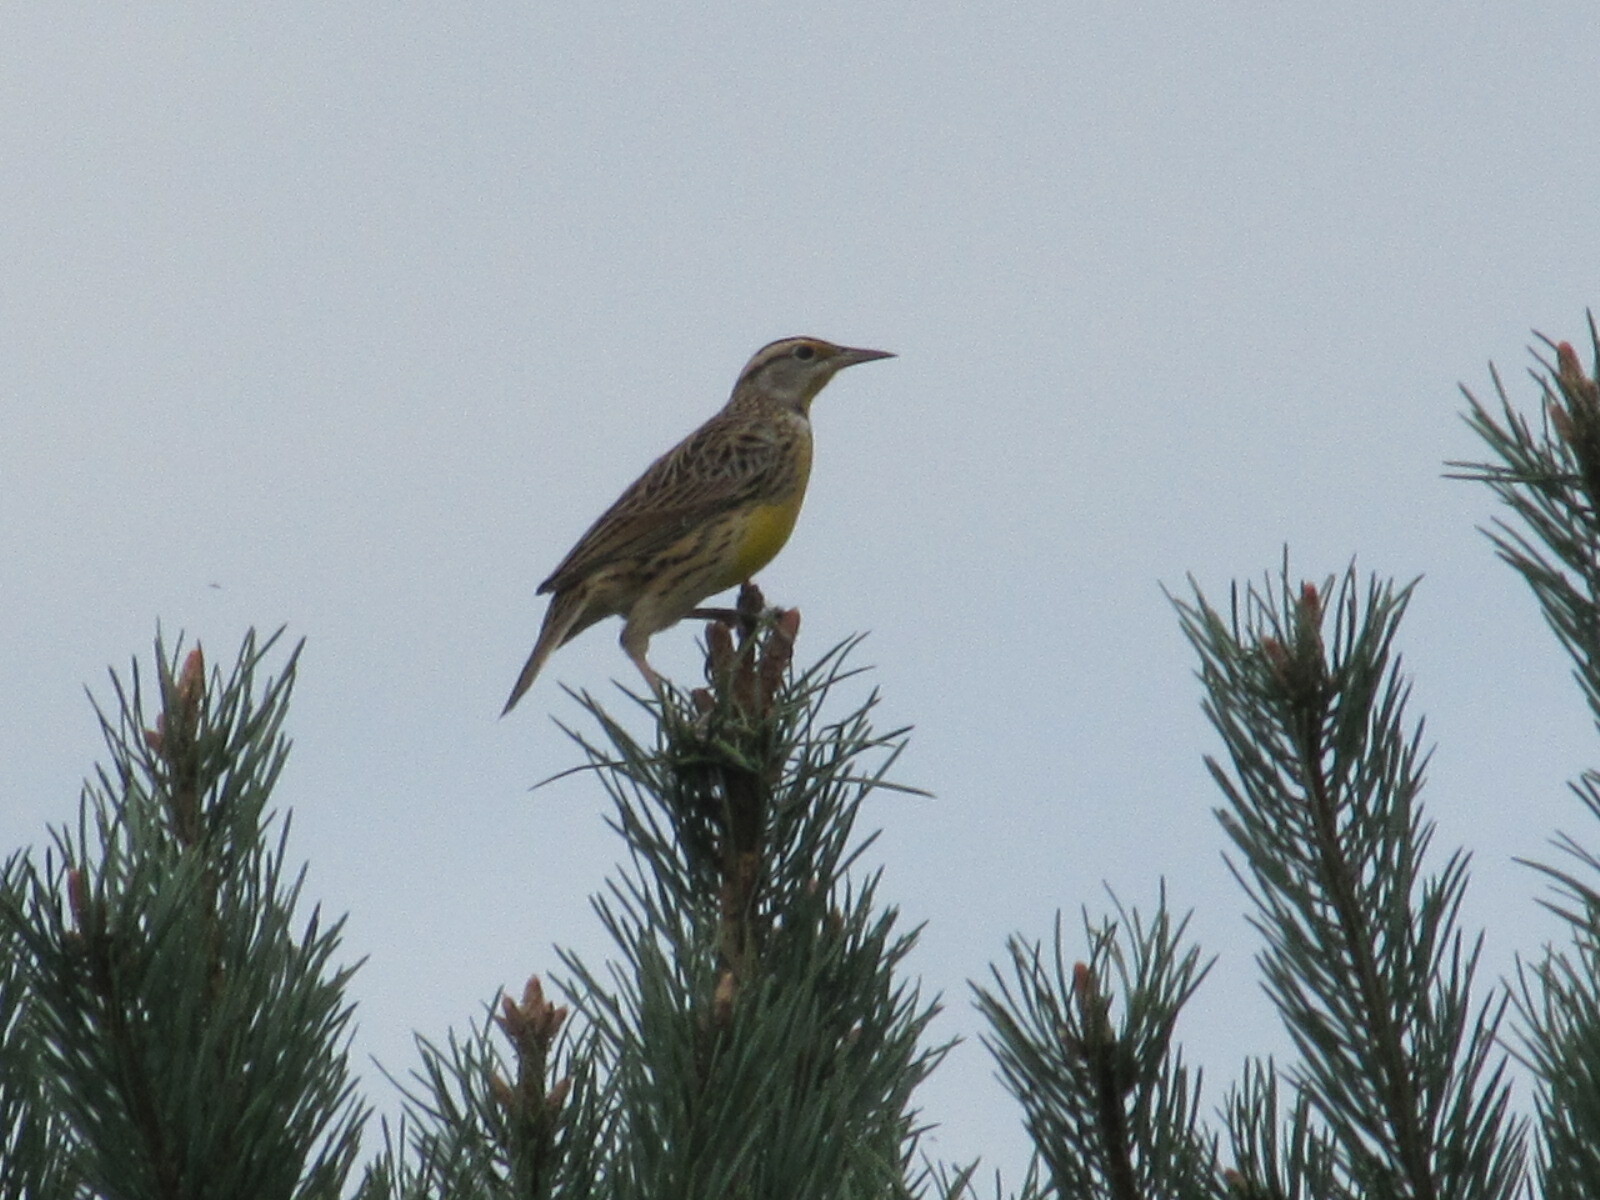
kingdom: Animalia
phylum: Chordata
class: Aves
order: Passeriformes
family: Icteridae
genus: Sturnella
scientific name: Sturnella magna
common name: Eastern meadowlark
